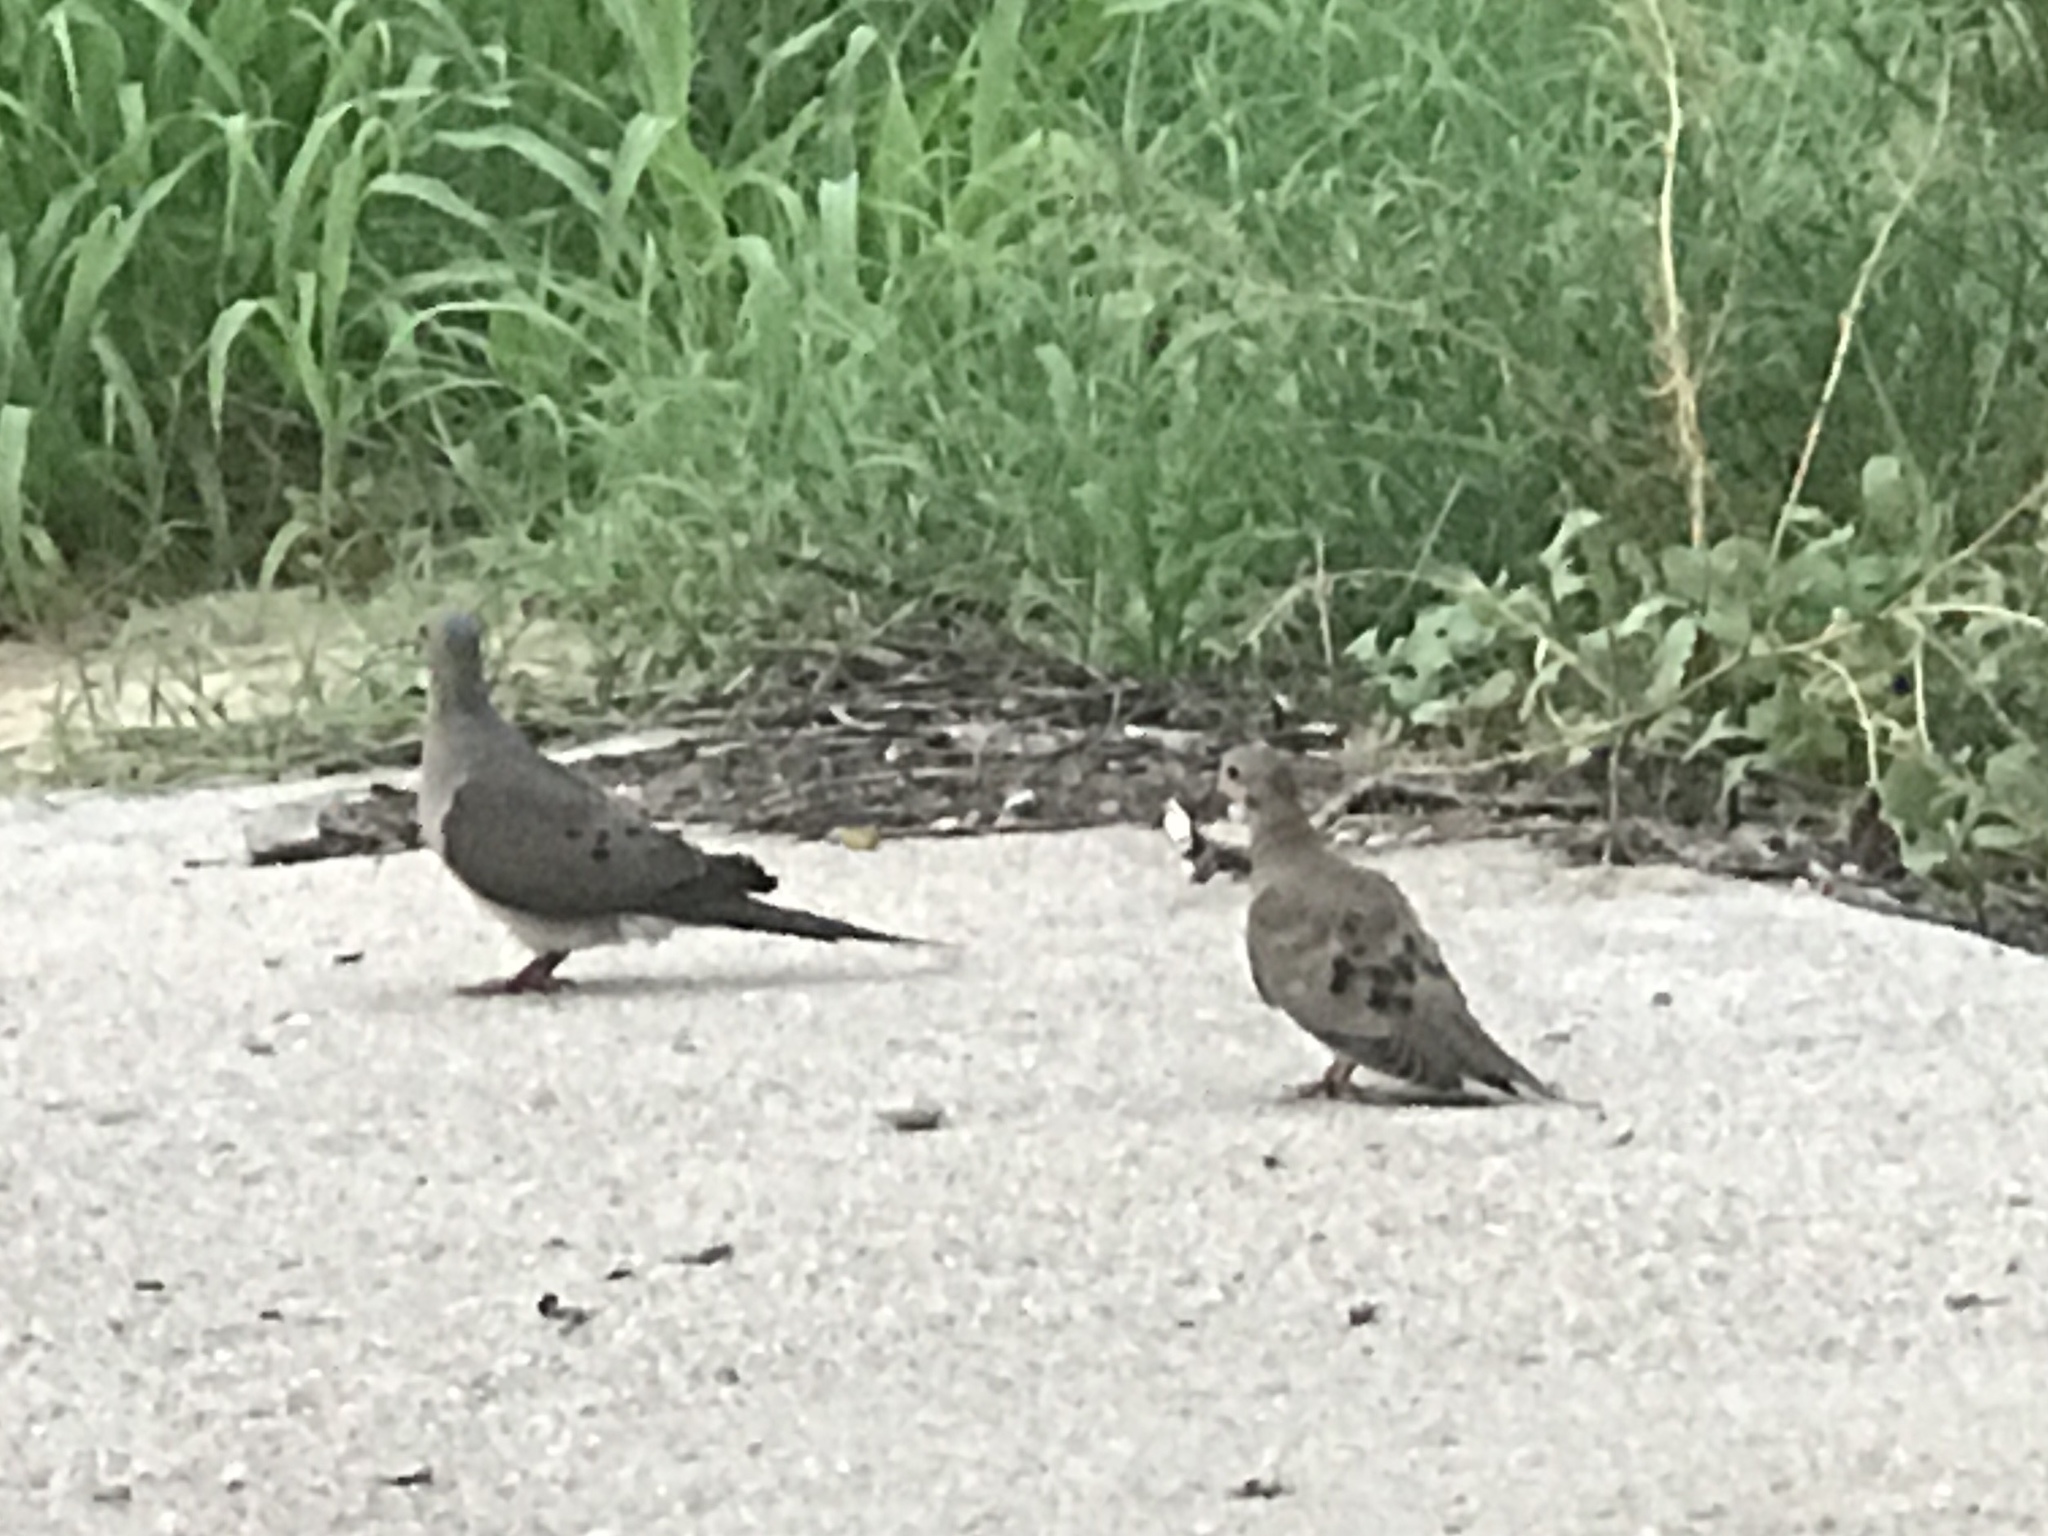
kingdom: Animalia
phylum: Chordata
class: Aves
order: Columbiformes
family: Columbidae
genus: Zenaida
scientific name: Zenaida macroura
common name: Mourning dove
